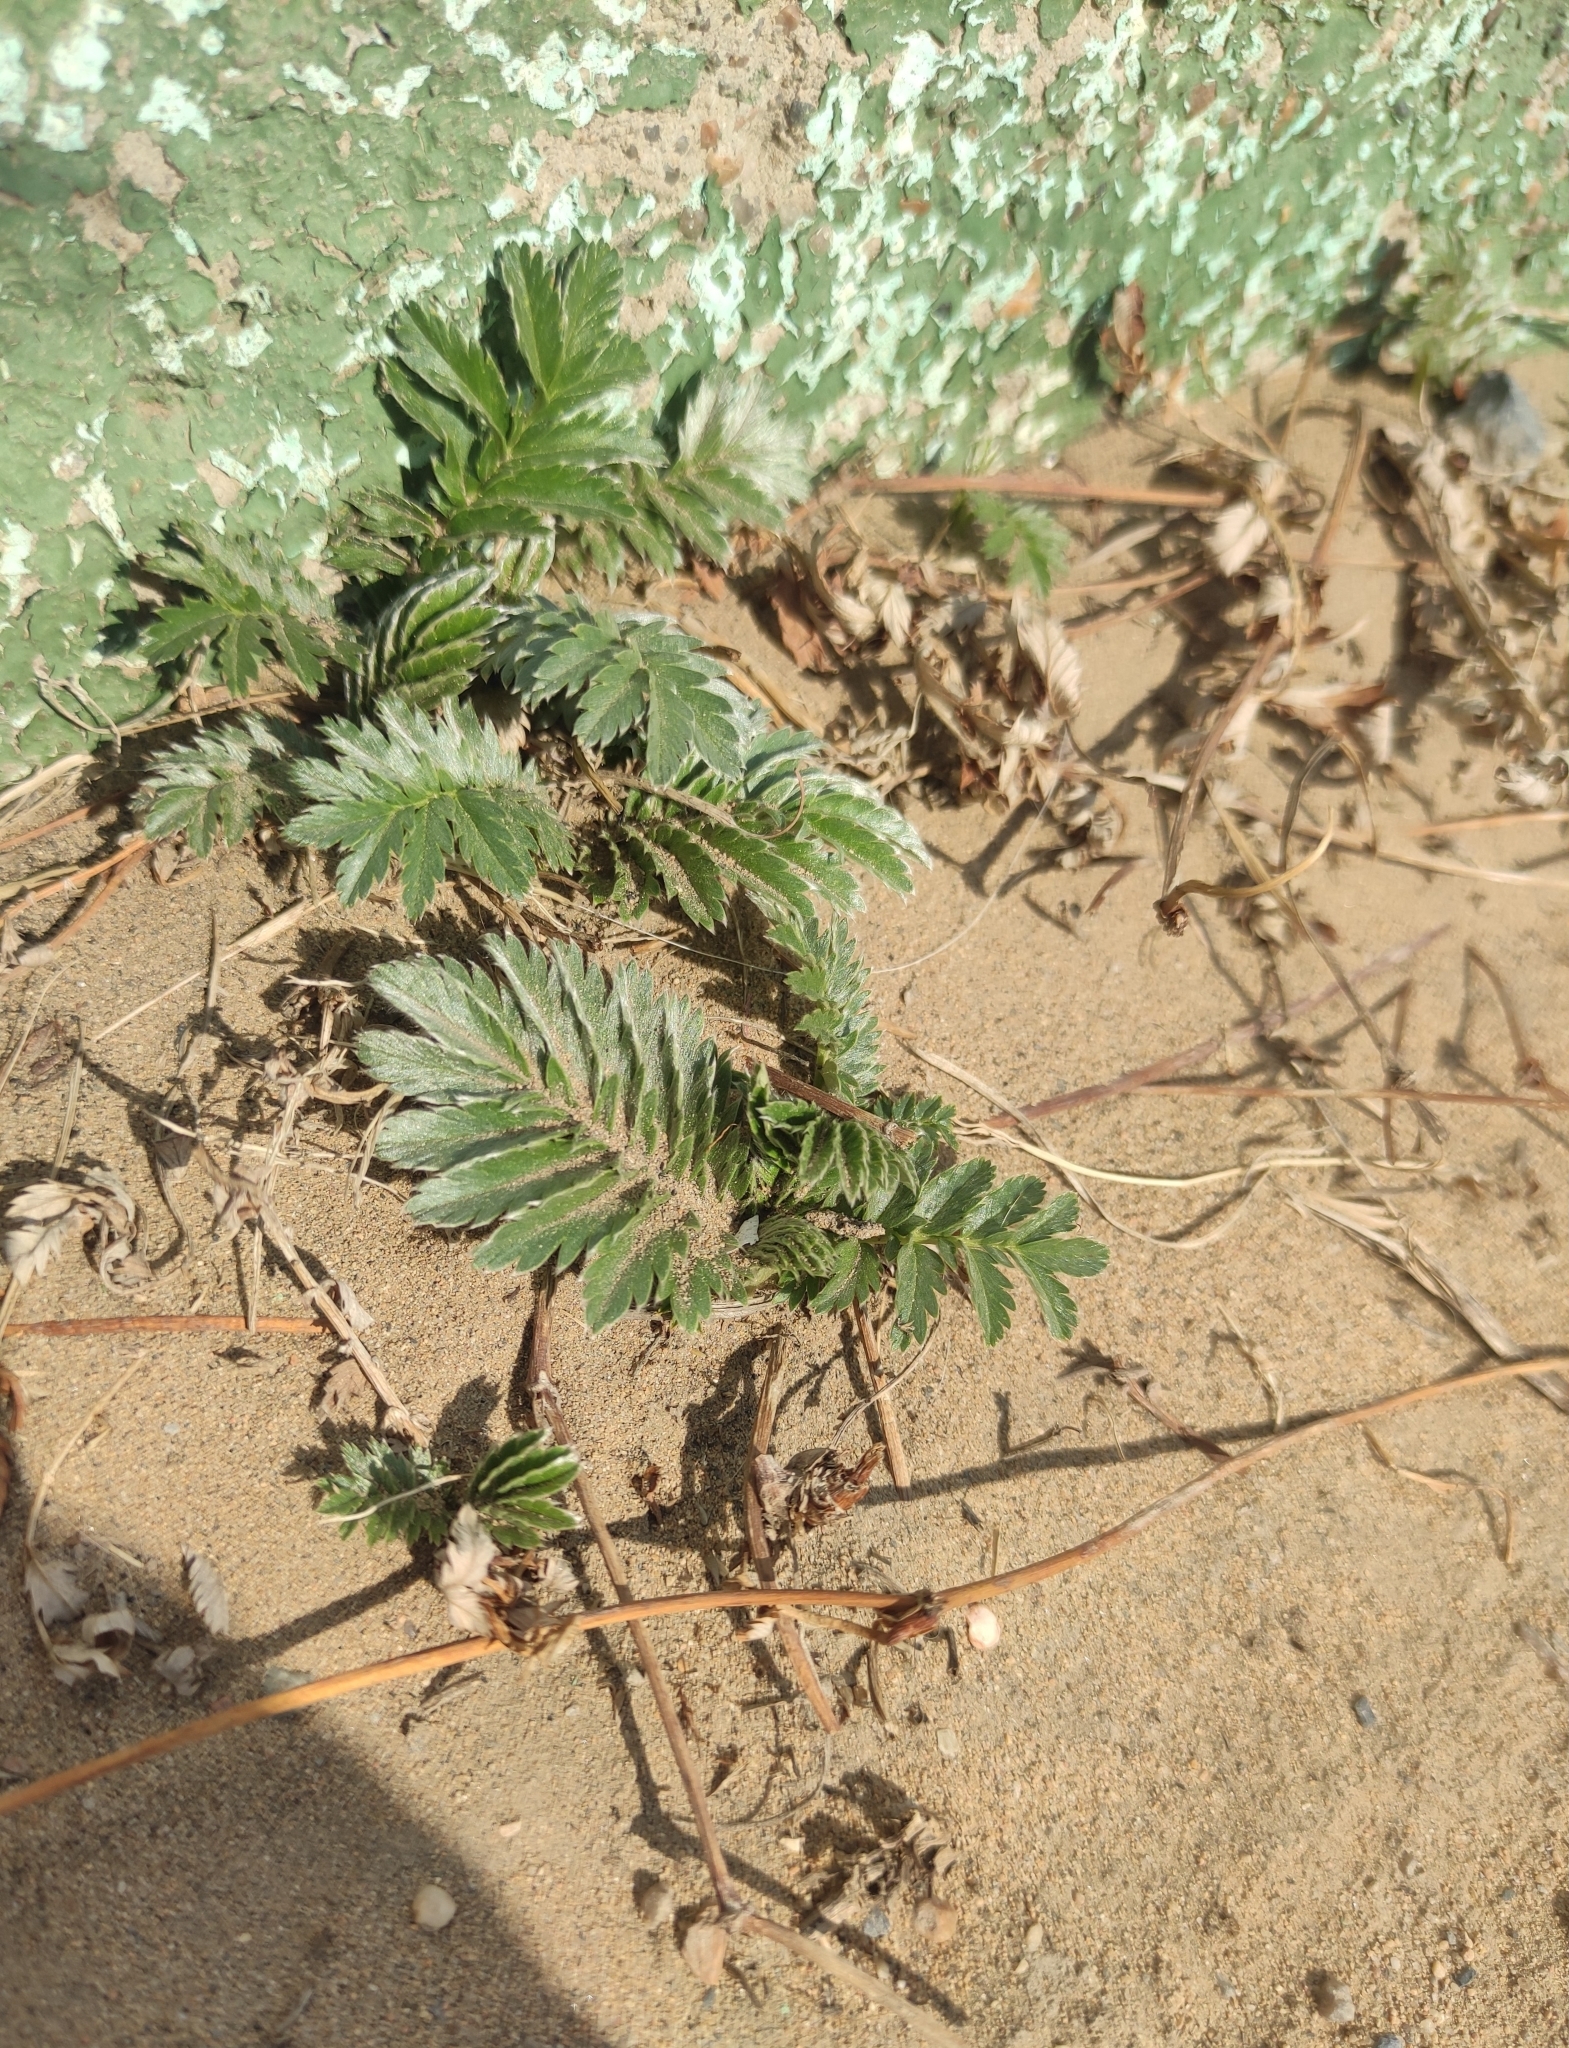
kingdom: Plantae
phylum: Tracheophyta
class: Magnoliopsida
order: Rosales
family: Rosaceae
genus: Argentina
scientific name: Argentina anserina
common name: Common silverweed
